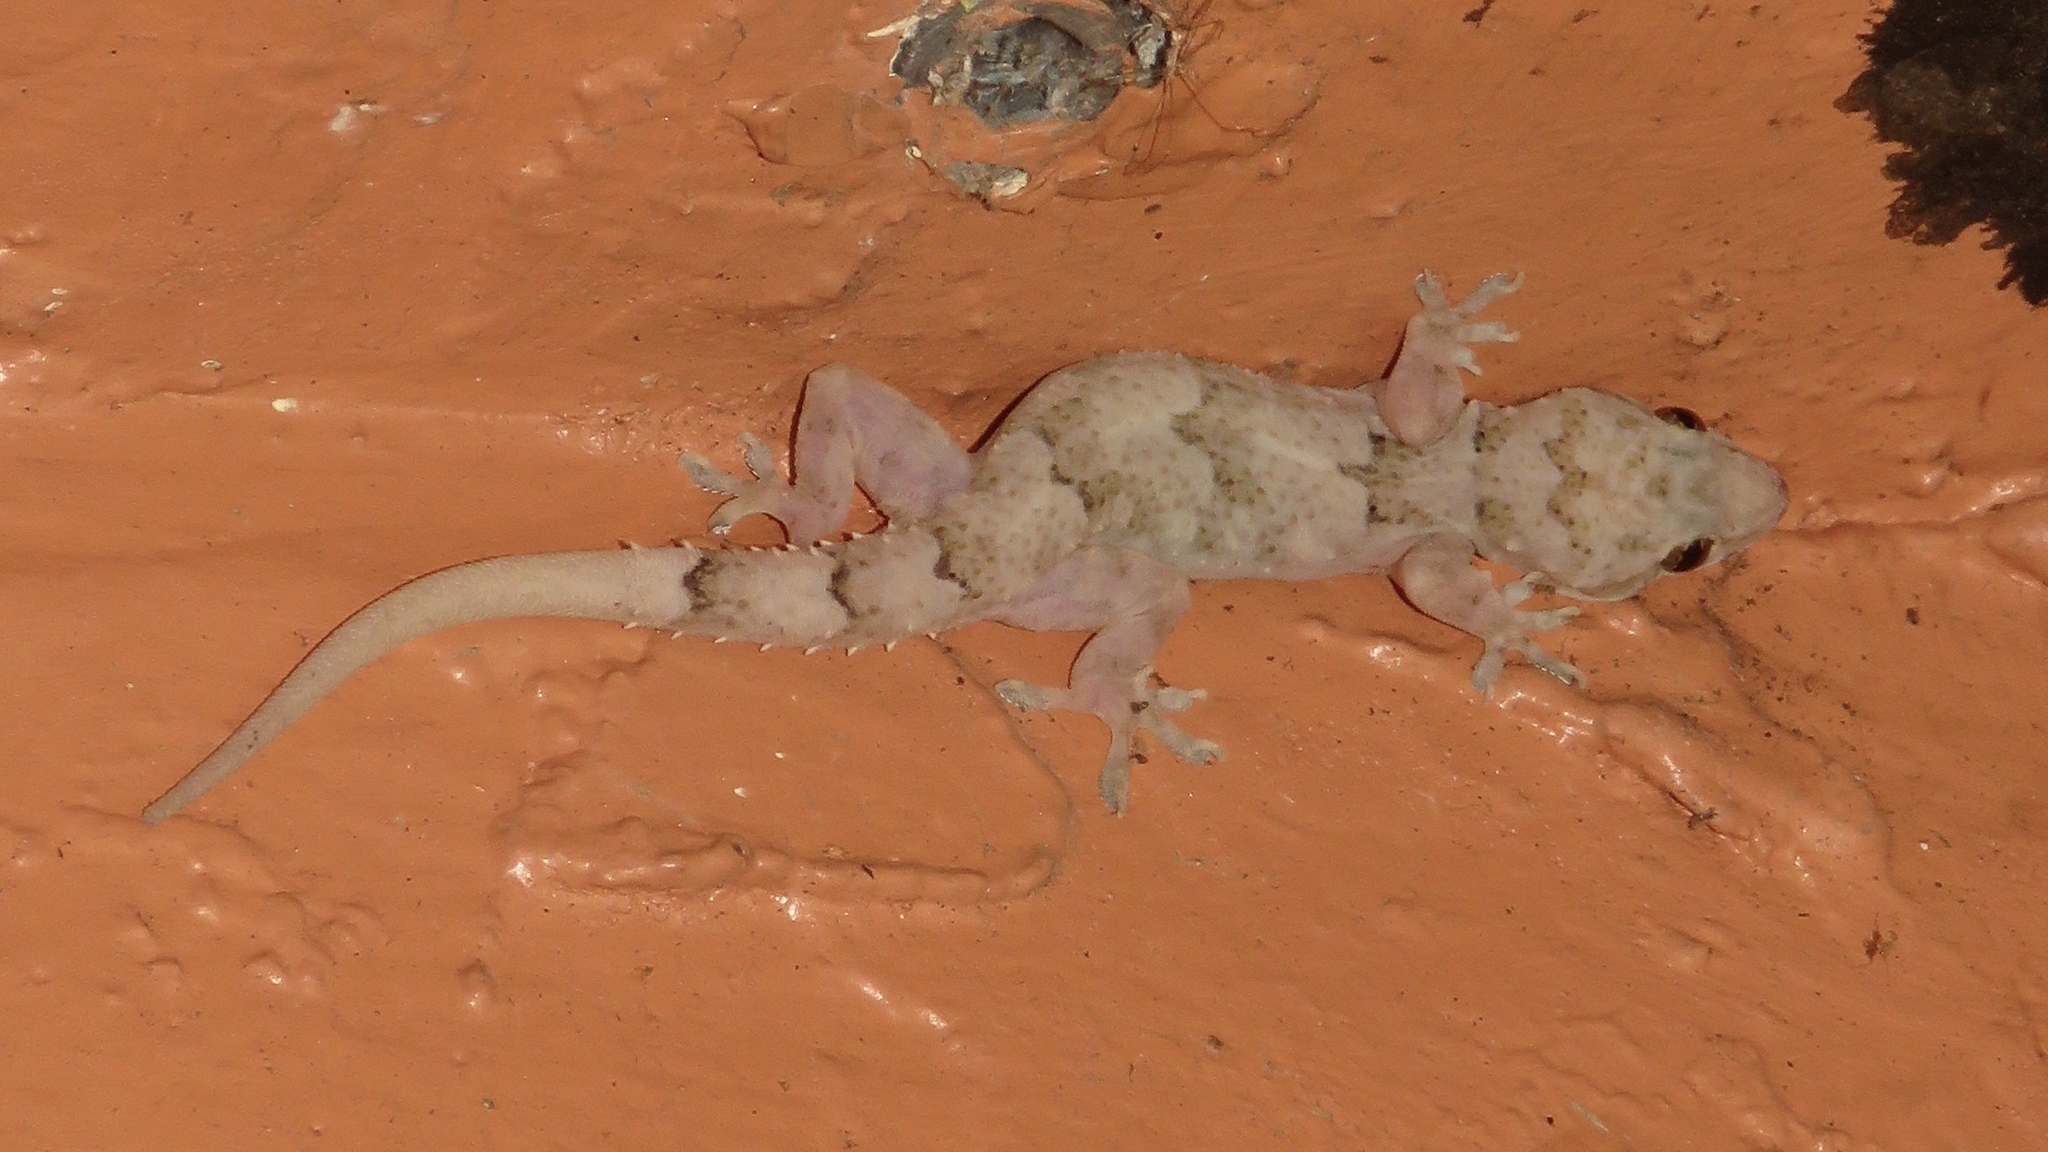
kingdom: Animalia
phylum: Chordata
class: Squamata
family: Gekkonidae
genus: Hemidactylus
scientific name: Hemidactylus mabouia
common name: House gecko
